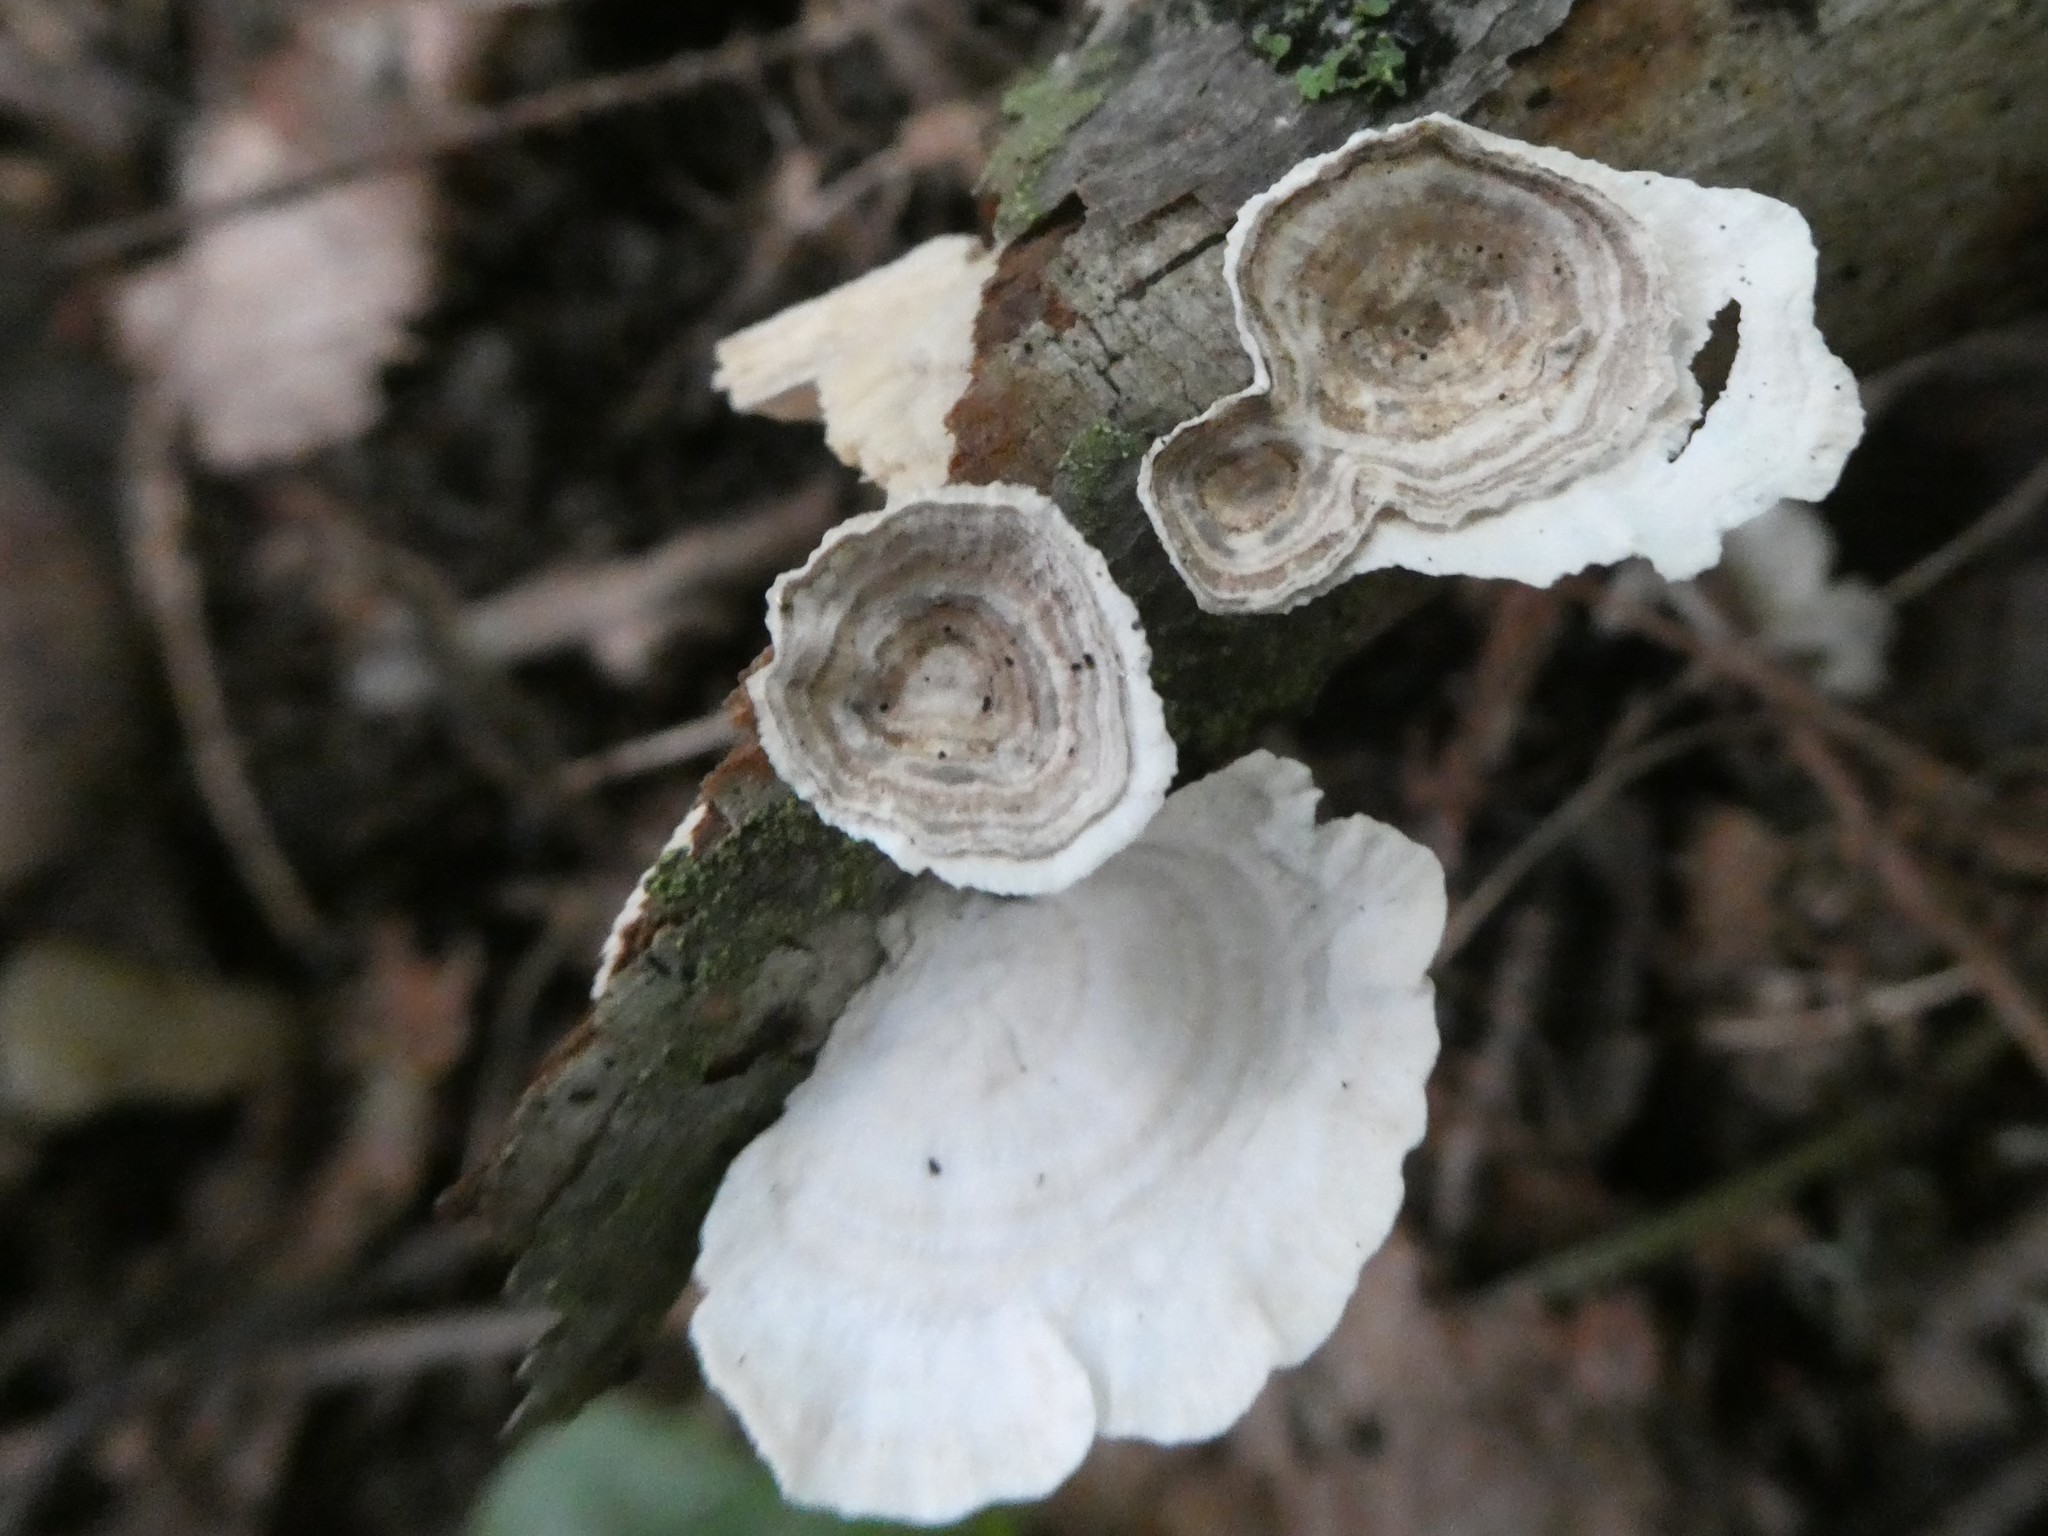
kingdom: Fungi
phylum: Basidiomycota
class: Agaricomycetes
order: Polyporales
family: Polyporaceae
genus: Poronidulus
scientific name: Poronidulus conchifer
